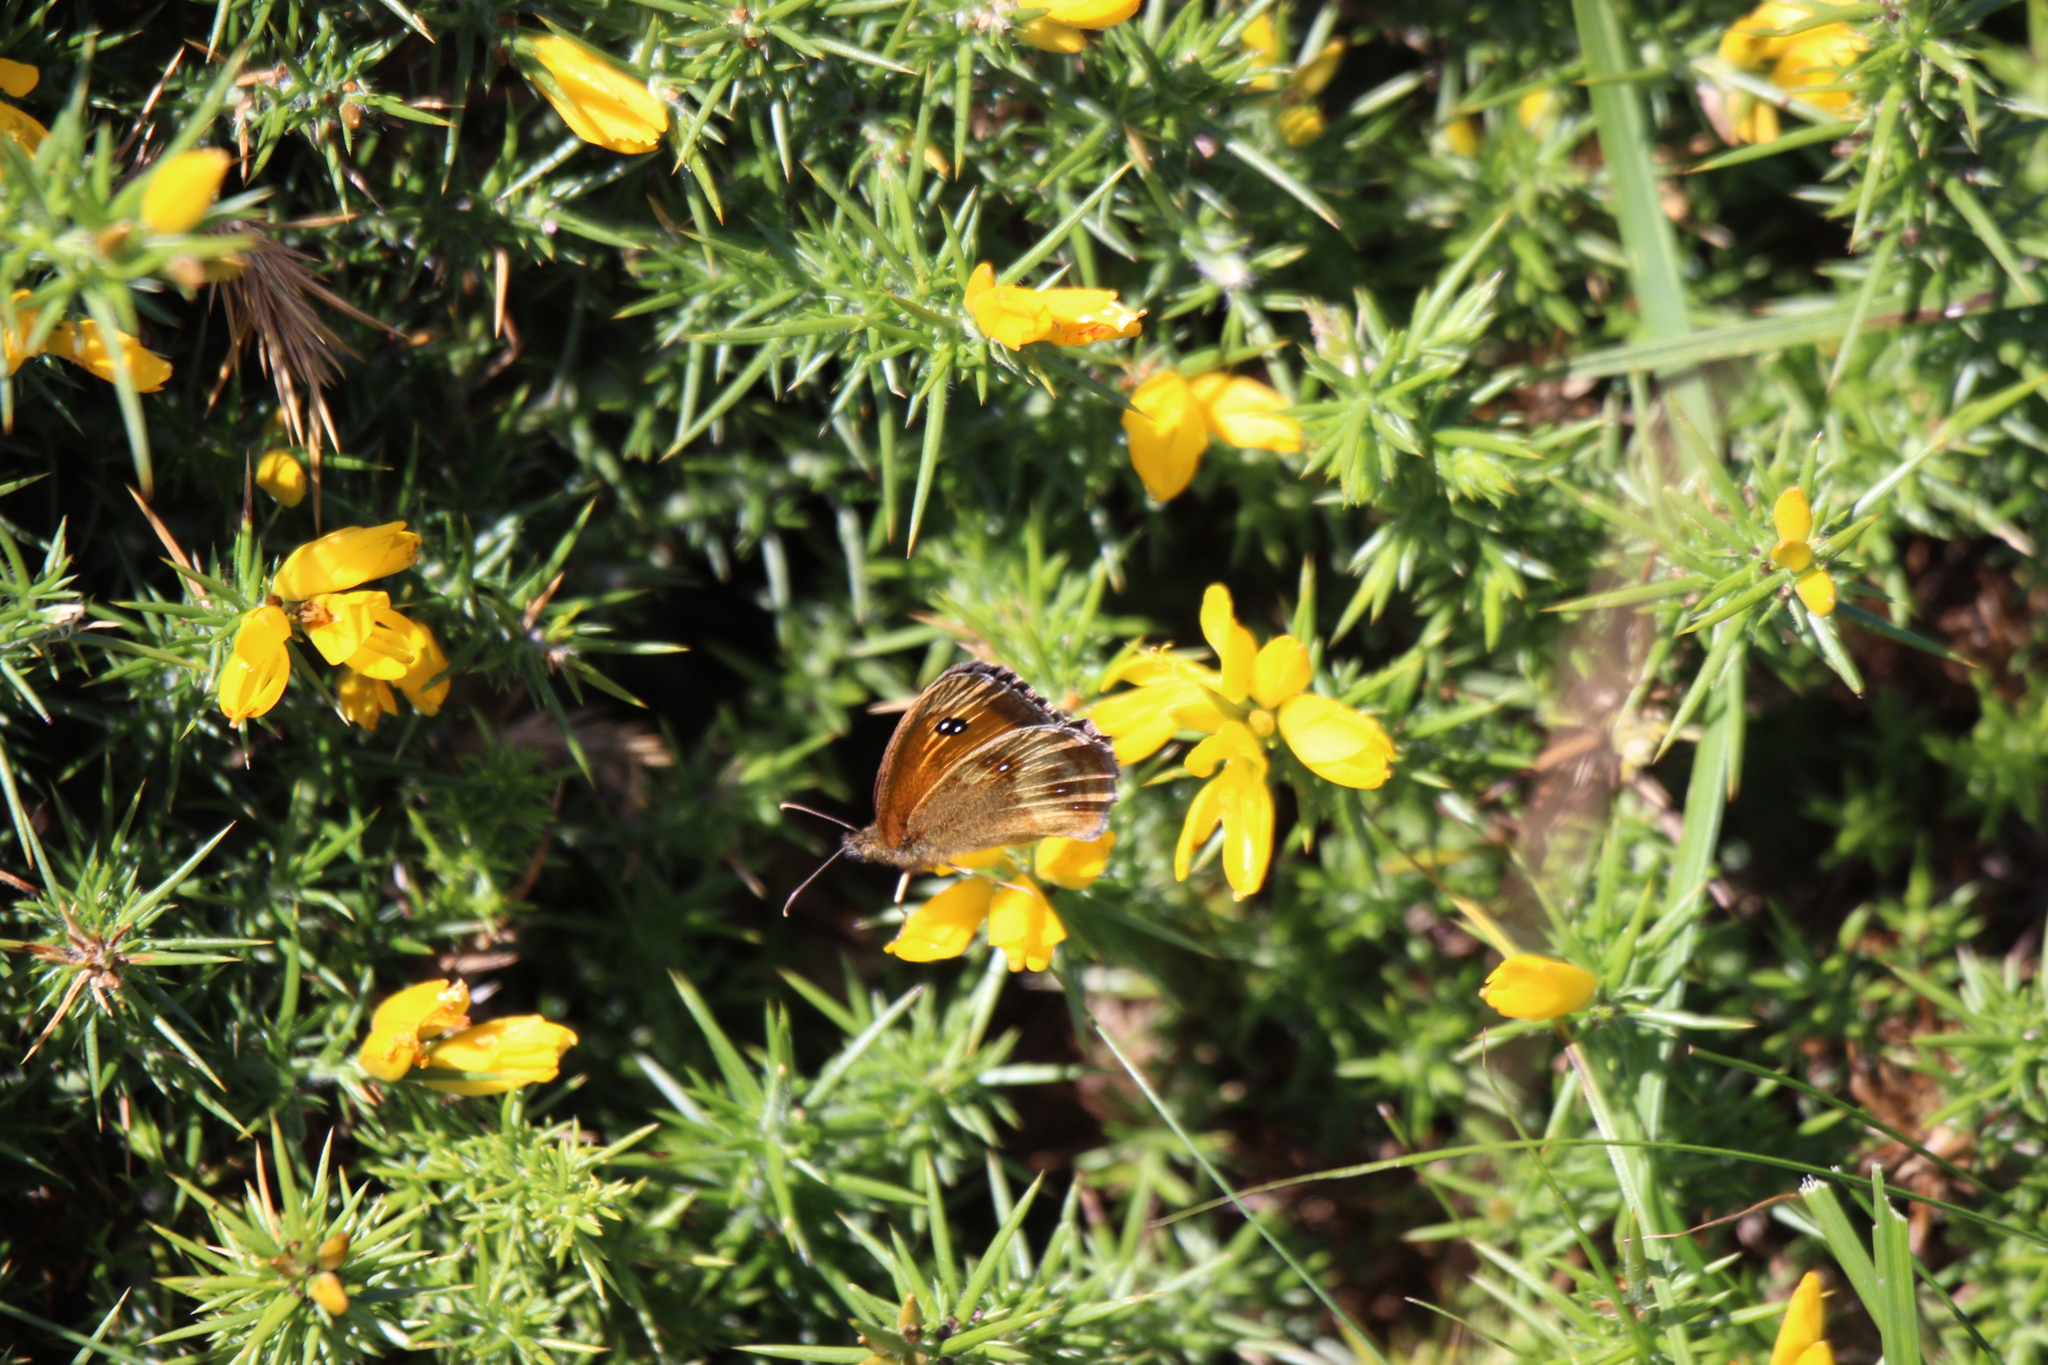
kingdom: Animalia
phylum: Arthropoda
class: Insecta
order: Lepidoptera
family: Nymphalidae
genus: Pyronia
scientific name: Pyronia tithonus
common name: Gatekeeper
